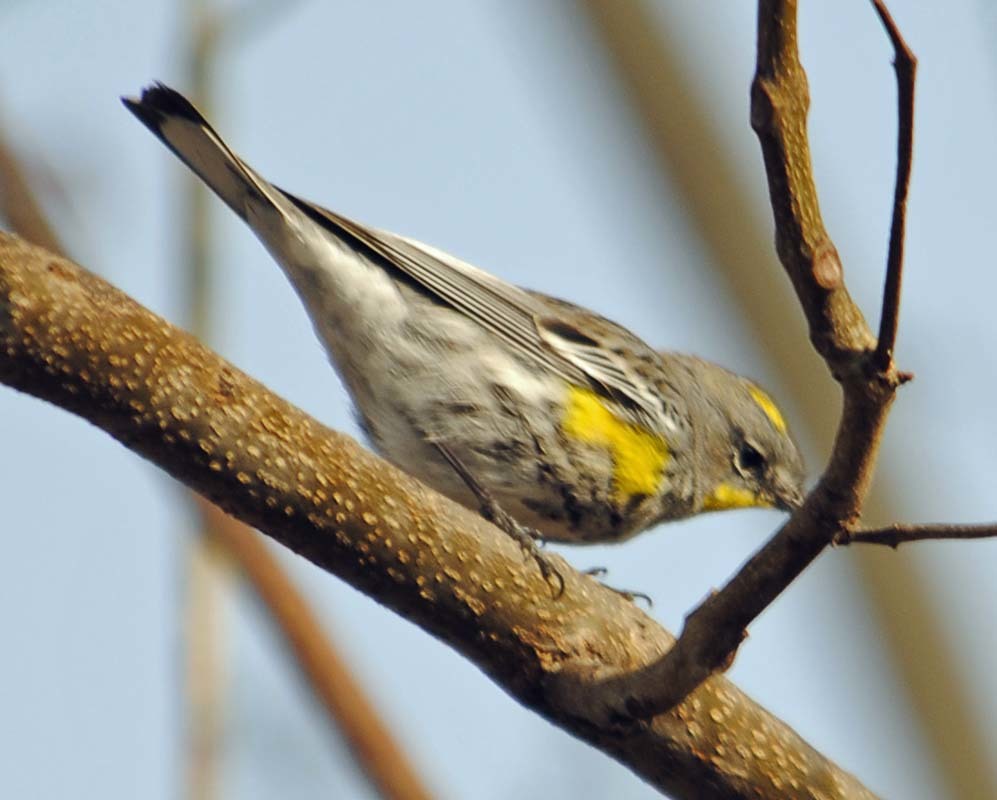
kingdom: Animalia
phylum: Chordata
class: Aves
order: Passeriformes
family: Parulidae
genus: Setophaga
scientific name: Setophaga auduboni
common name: Audubon's warbler
